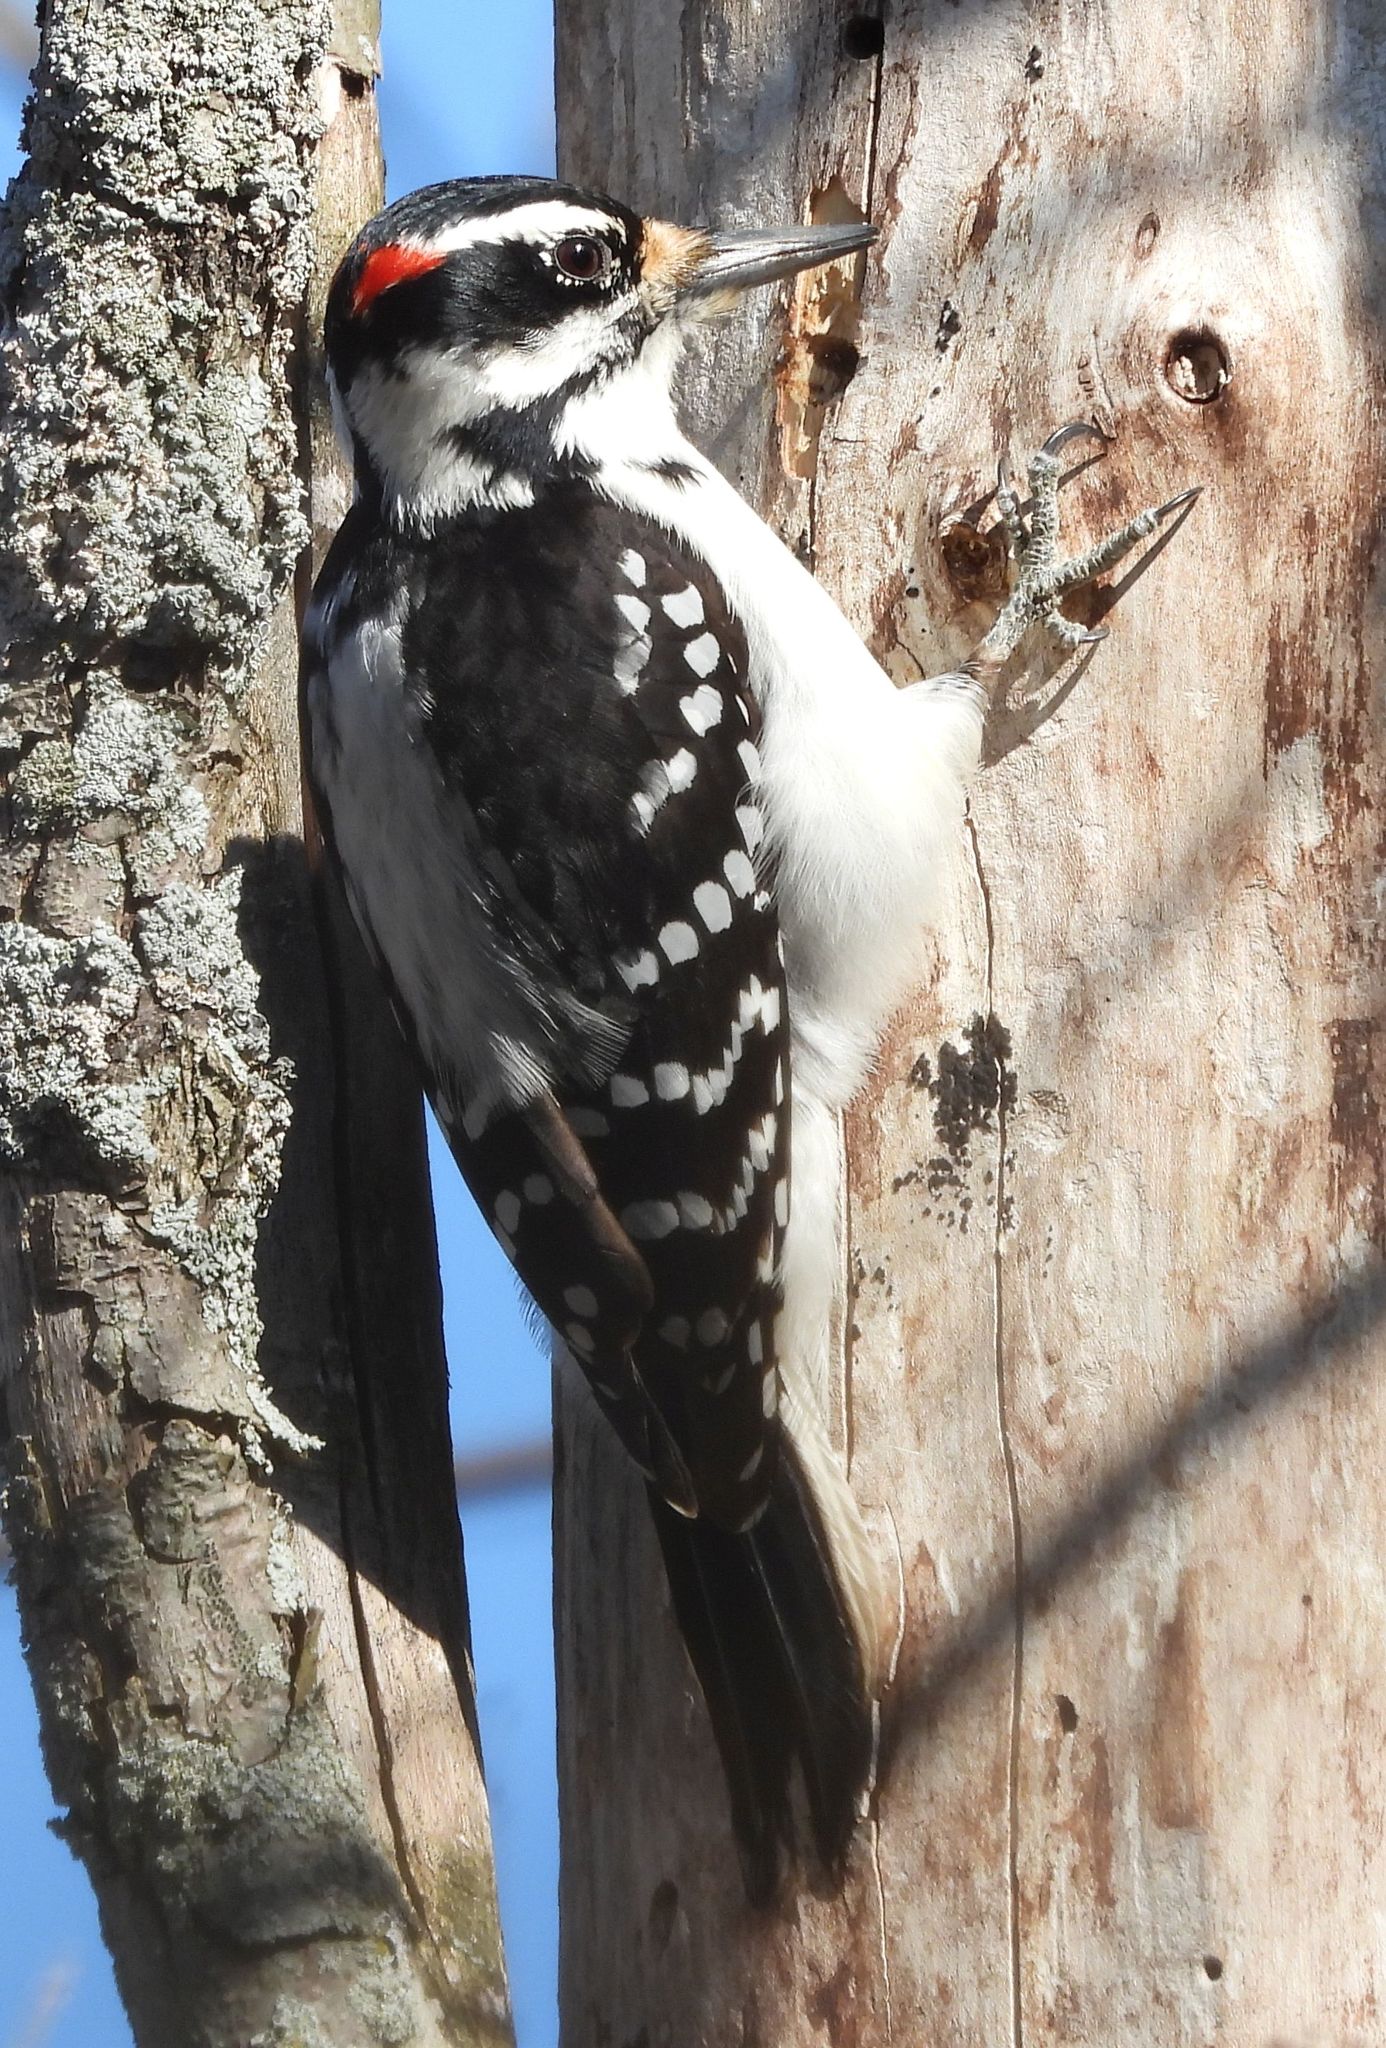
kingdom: Animalia
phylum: Chordata
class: Aves
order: Piciformes
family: Picidae
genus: Leuconotopicus
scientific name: Leuconotopicus villosus
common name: Hairy woodpecker
